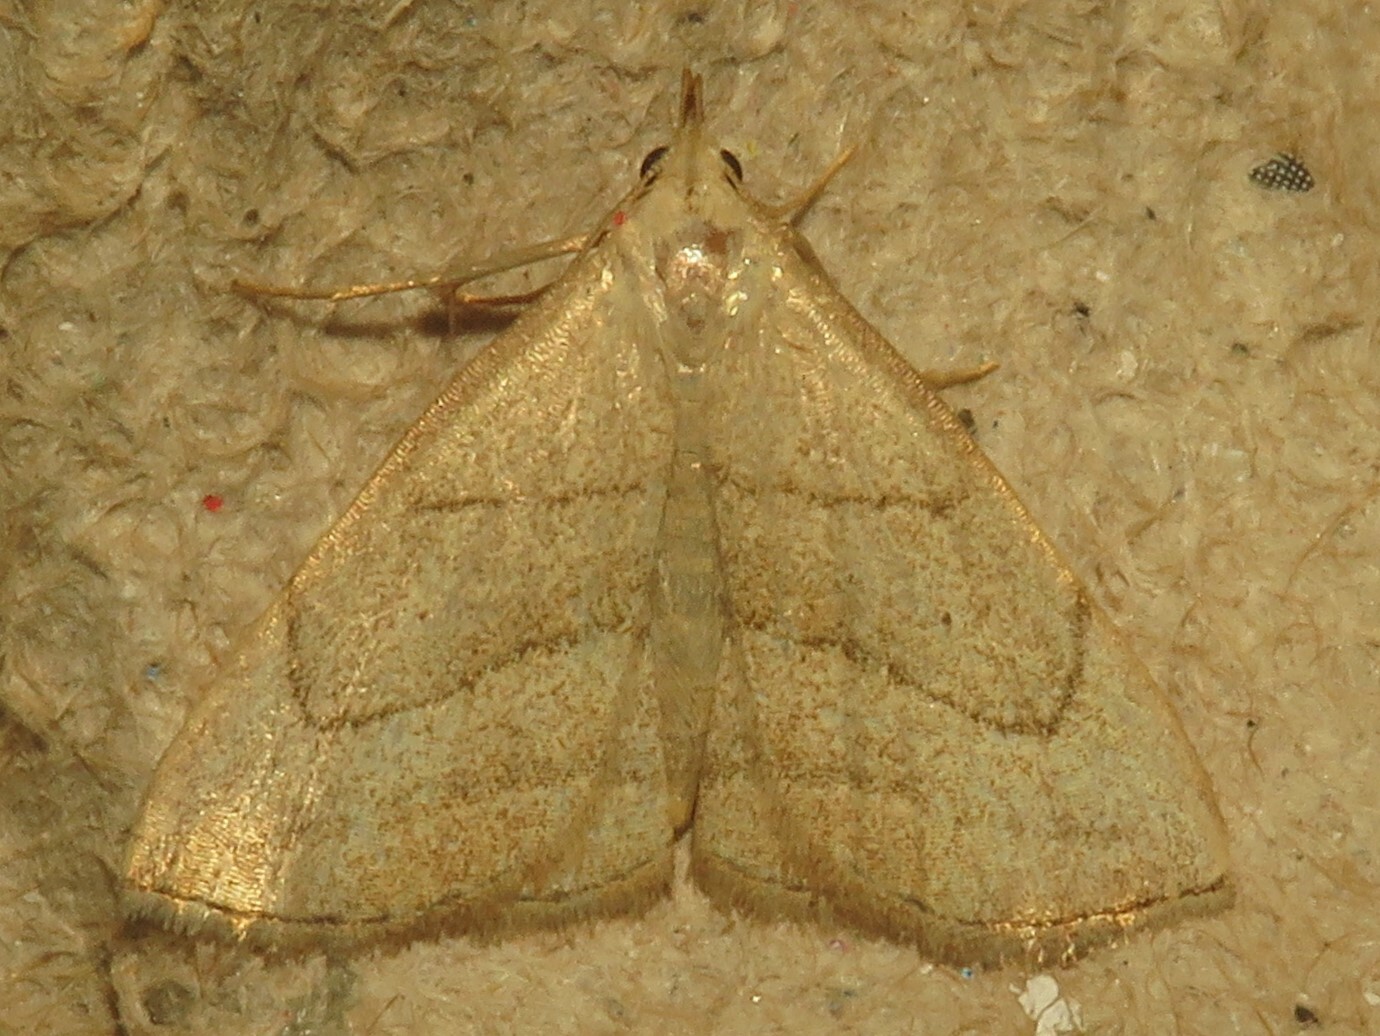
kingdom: Animalia
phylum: Arthropoda
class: Insecta
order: Lepidoptera
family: Erebidae
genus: Macrochilo
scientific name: Macrochilo litophora
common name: Brown-lined owlet
